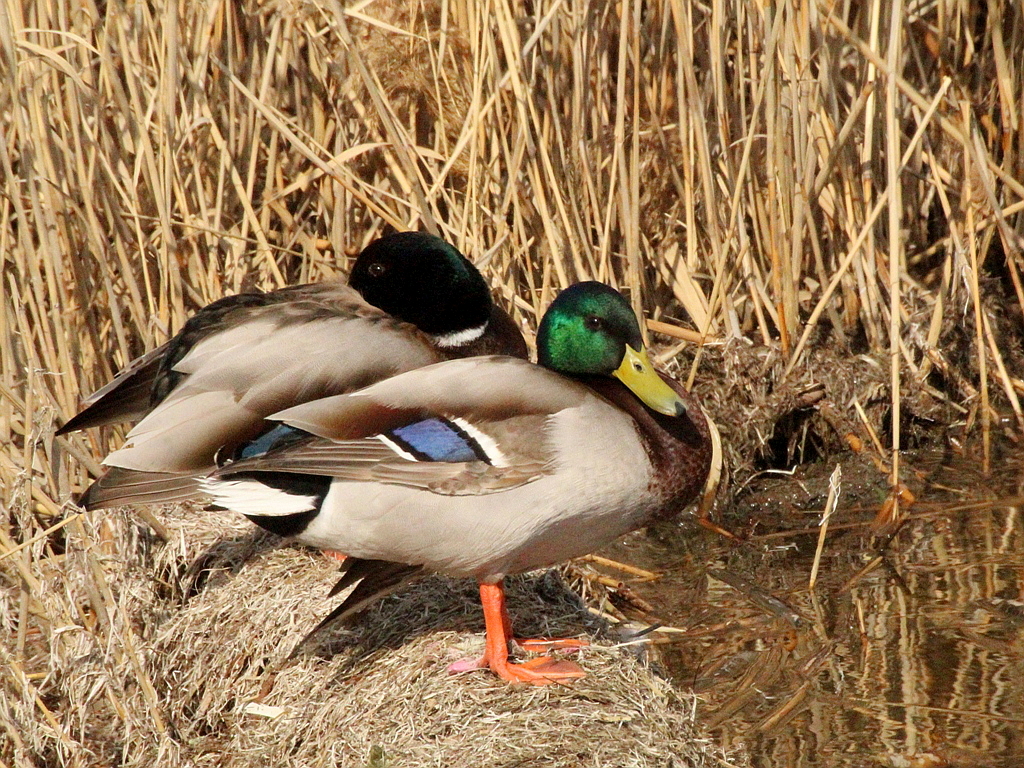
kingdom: Animalia
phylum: Chordata
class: Aves
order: Anseriformes
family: Anatidae
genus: Anas
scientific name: Anas platyrhynchos
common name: Mallard
